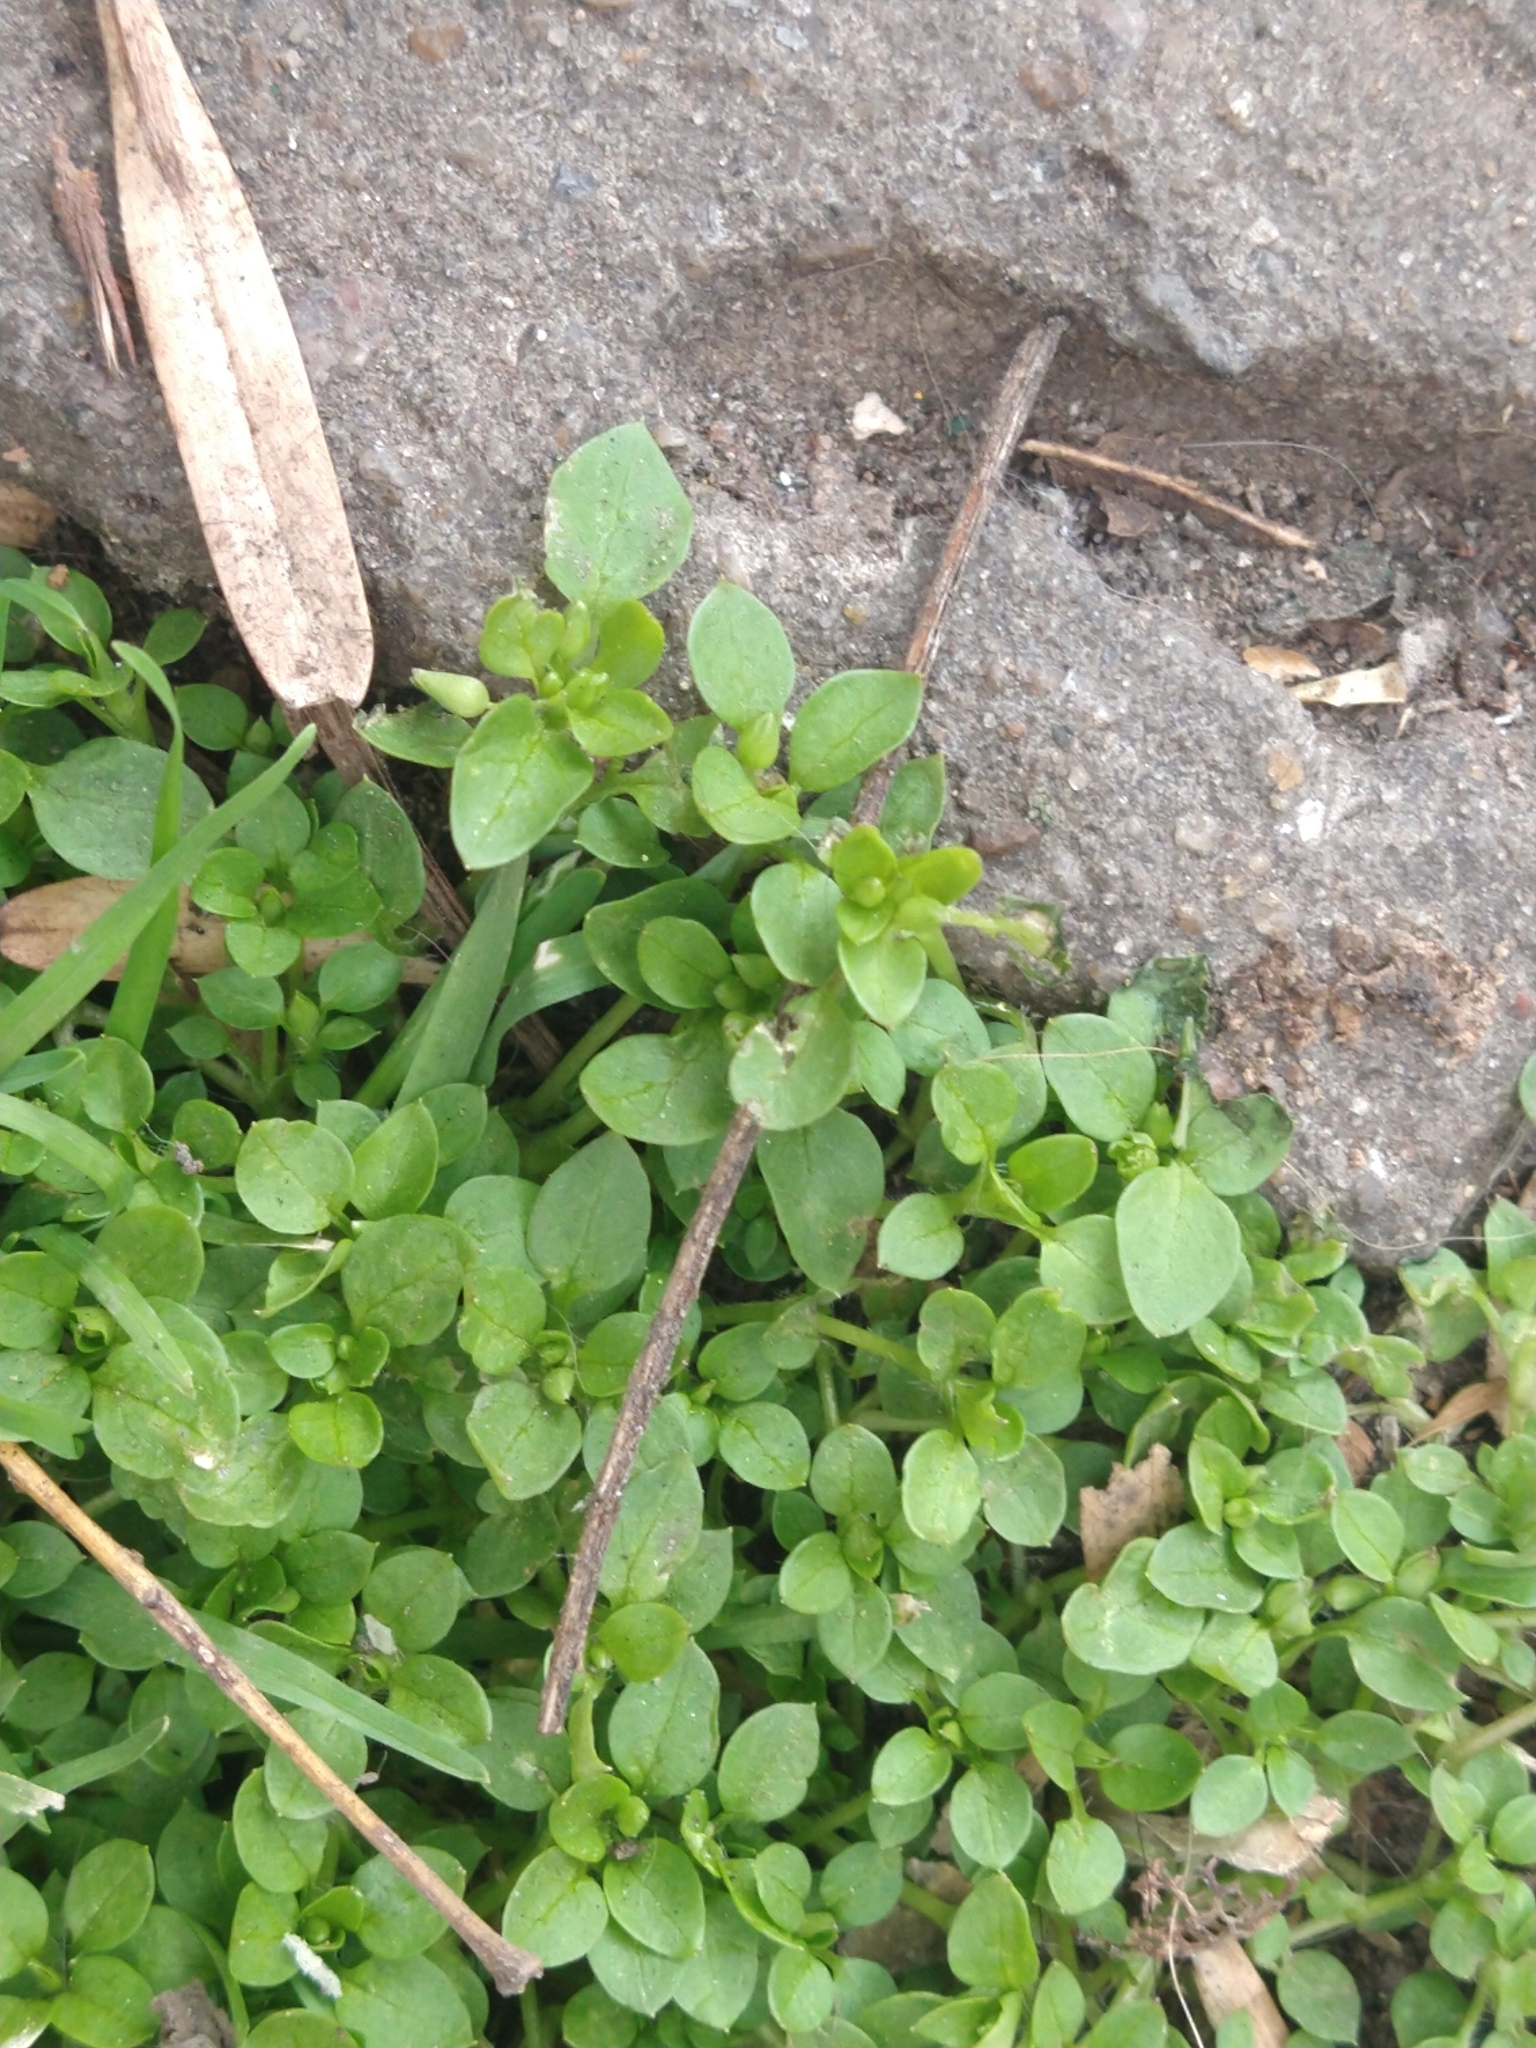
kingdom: Plantae
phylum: Tracheophyta
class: Magnoliopsida
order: Caryophyllales
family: Caryophyllaceae
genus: Stellaria
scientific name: Stellaria media
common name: Common chickweed
